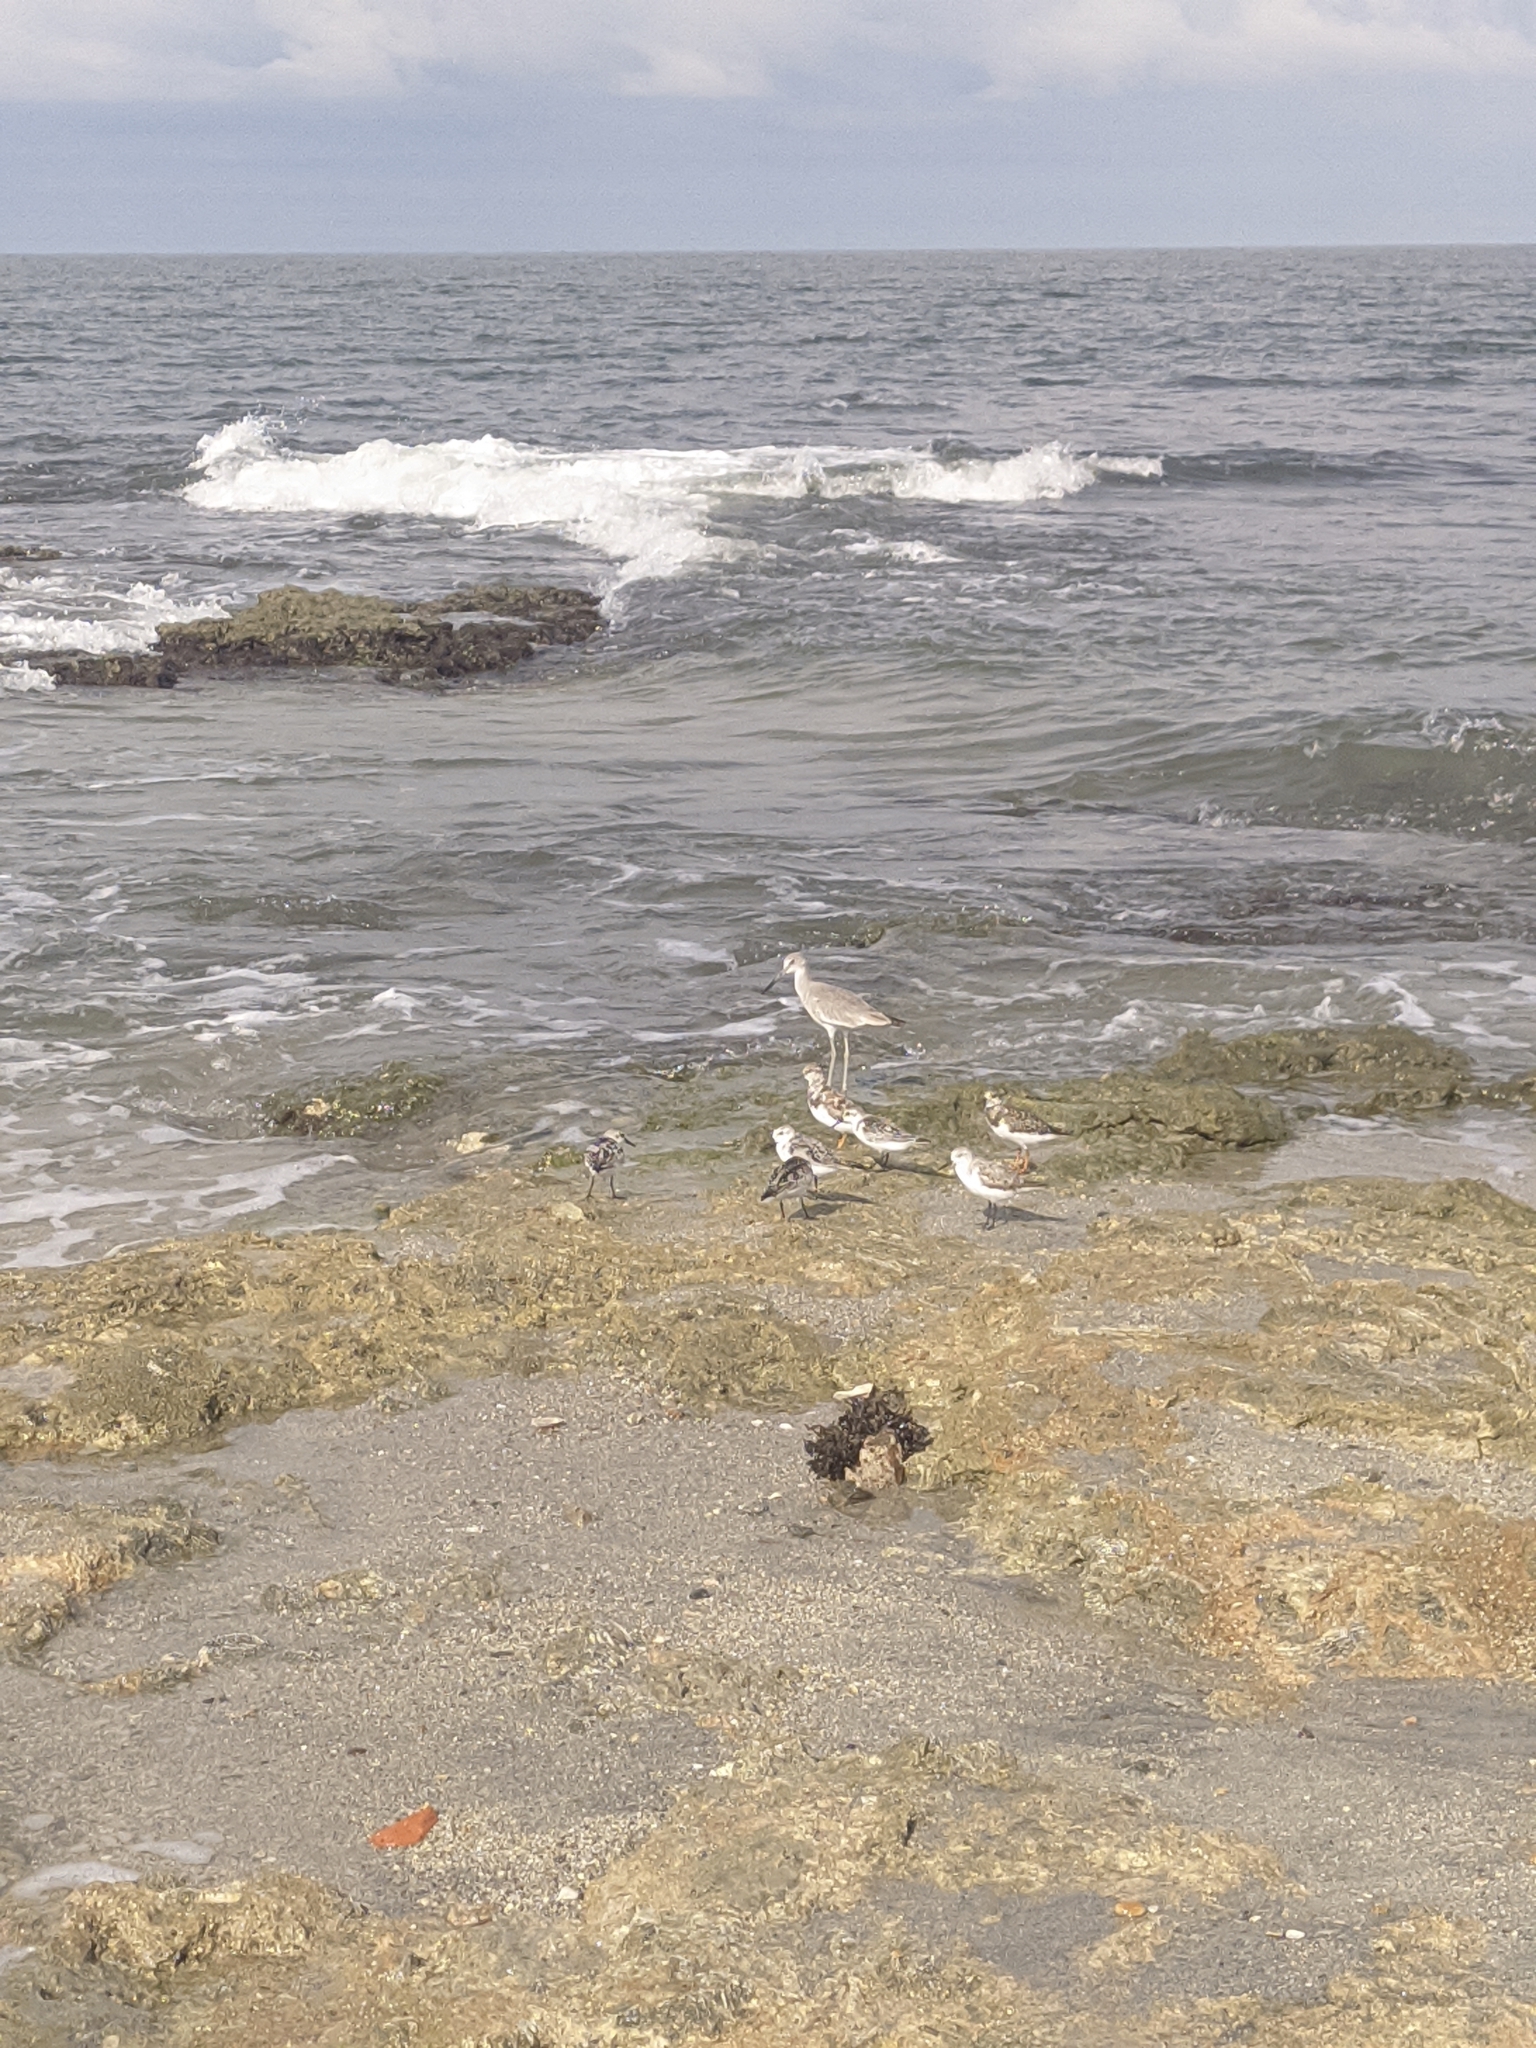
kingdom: Animalia
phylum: Chordata
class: Aves
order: Charadriiformes
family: Scolopacidae
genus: Tringa
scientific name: Tringa semipalmata
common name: Willet
